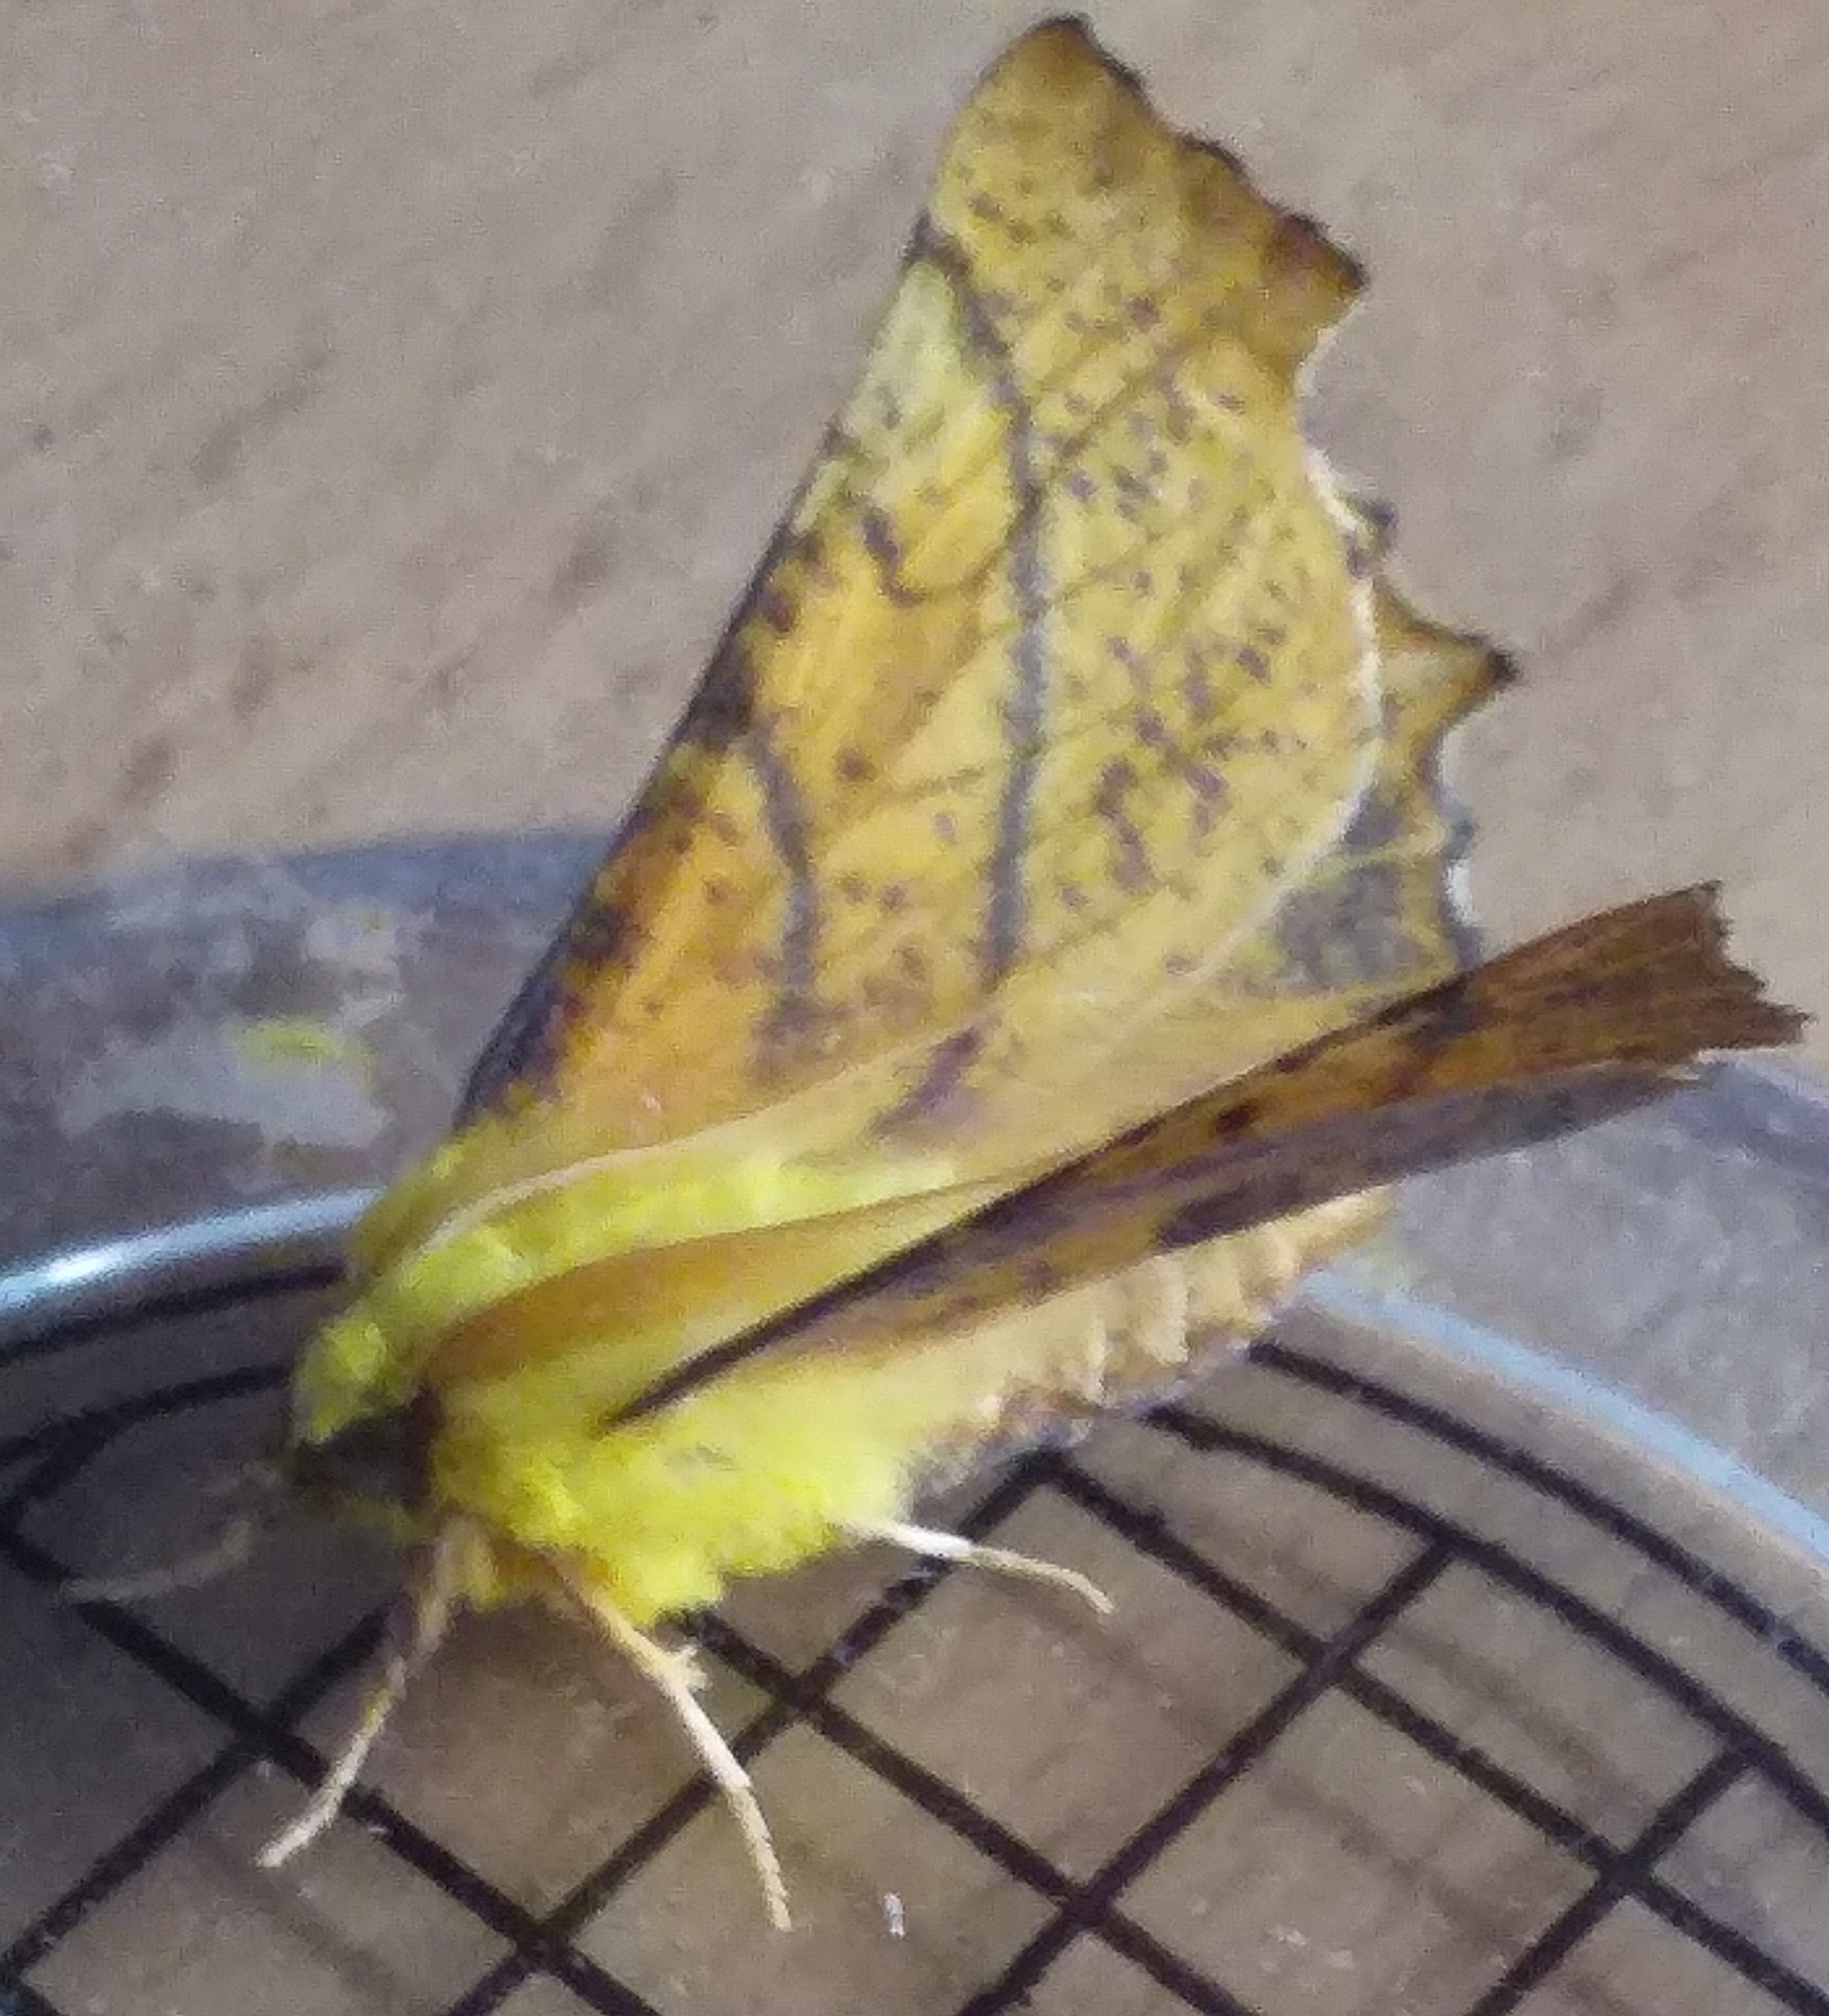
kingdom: Animalia
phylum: Arthropoda
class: Insecta
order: Lepidoptera
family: Geometridae
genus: Ennomos
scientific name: Ennomos alniaria
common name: Canary-shouldered thorn
